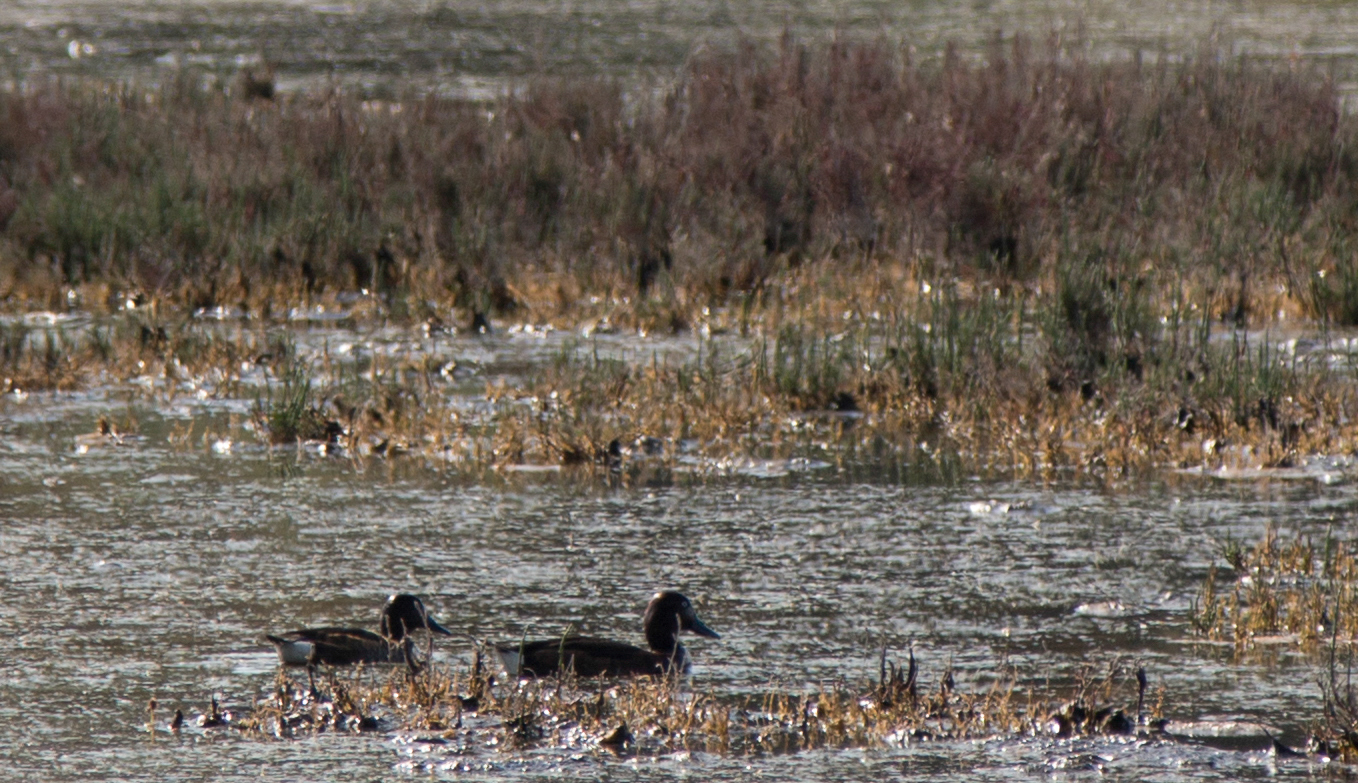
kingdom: Animalia
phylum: Chordata
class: Aves
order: Anseriformes
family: Anatidae
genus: Aythya
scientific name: Aythya nyroca
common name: Ferruginous duck
